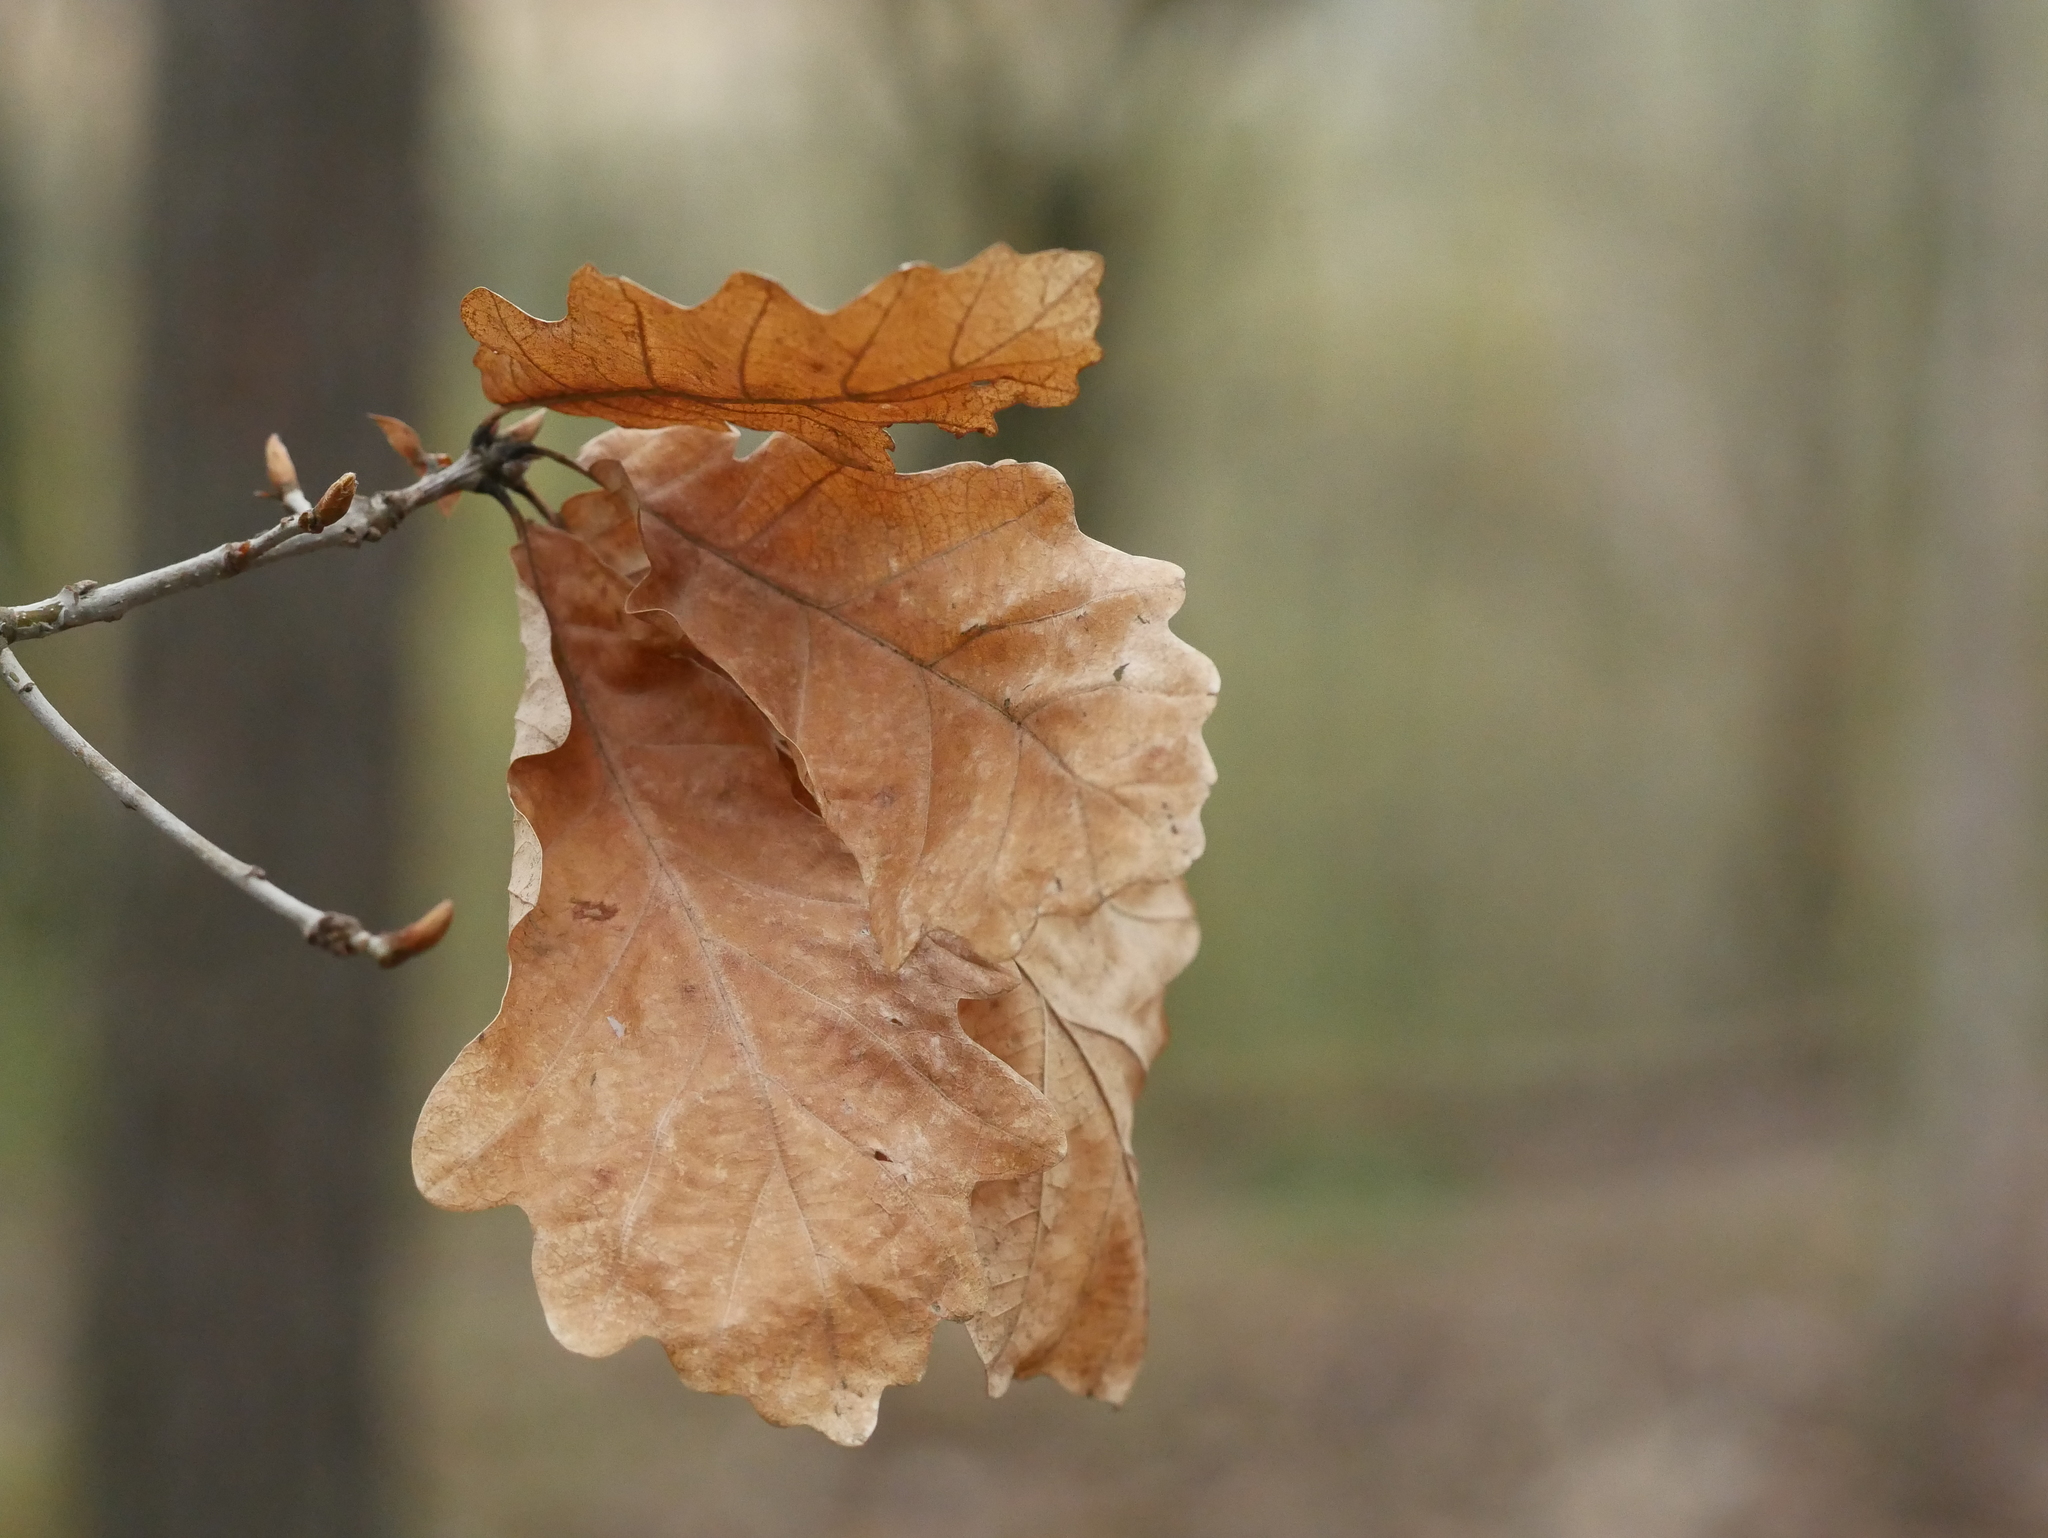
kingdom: Plantae
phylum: Tracheophyta
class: Magnoliopsida
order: Fagales
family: Fagaceae
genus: Quercus
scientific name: Quercus robur
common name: Pedunculate oak
